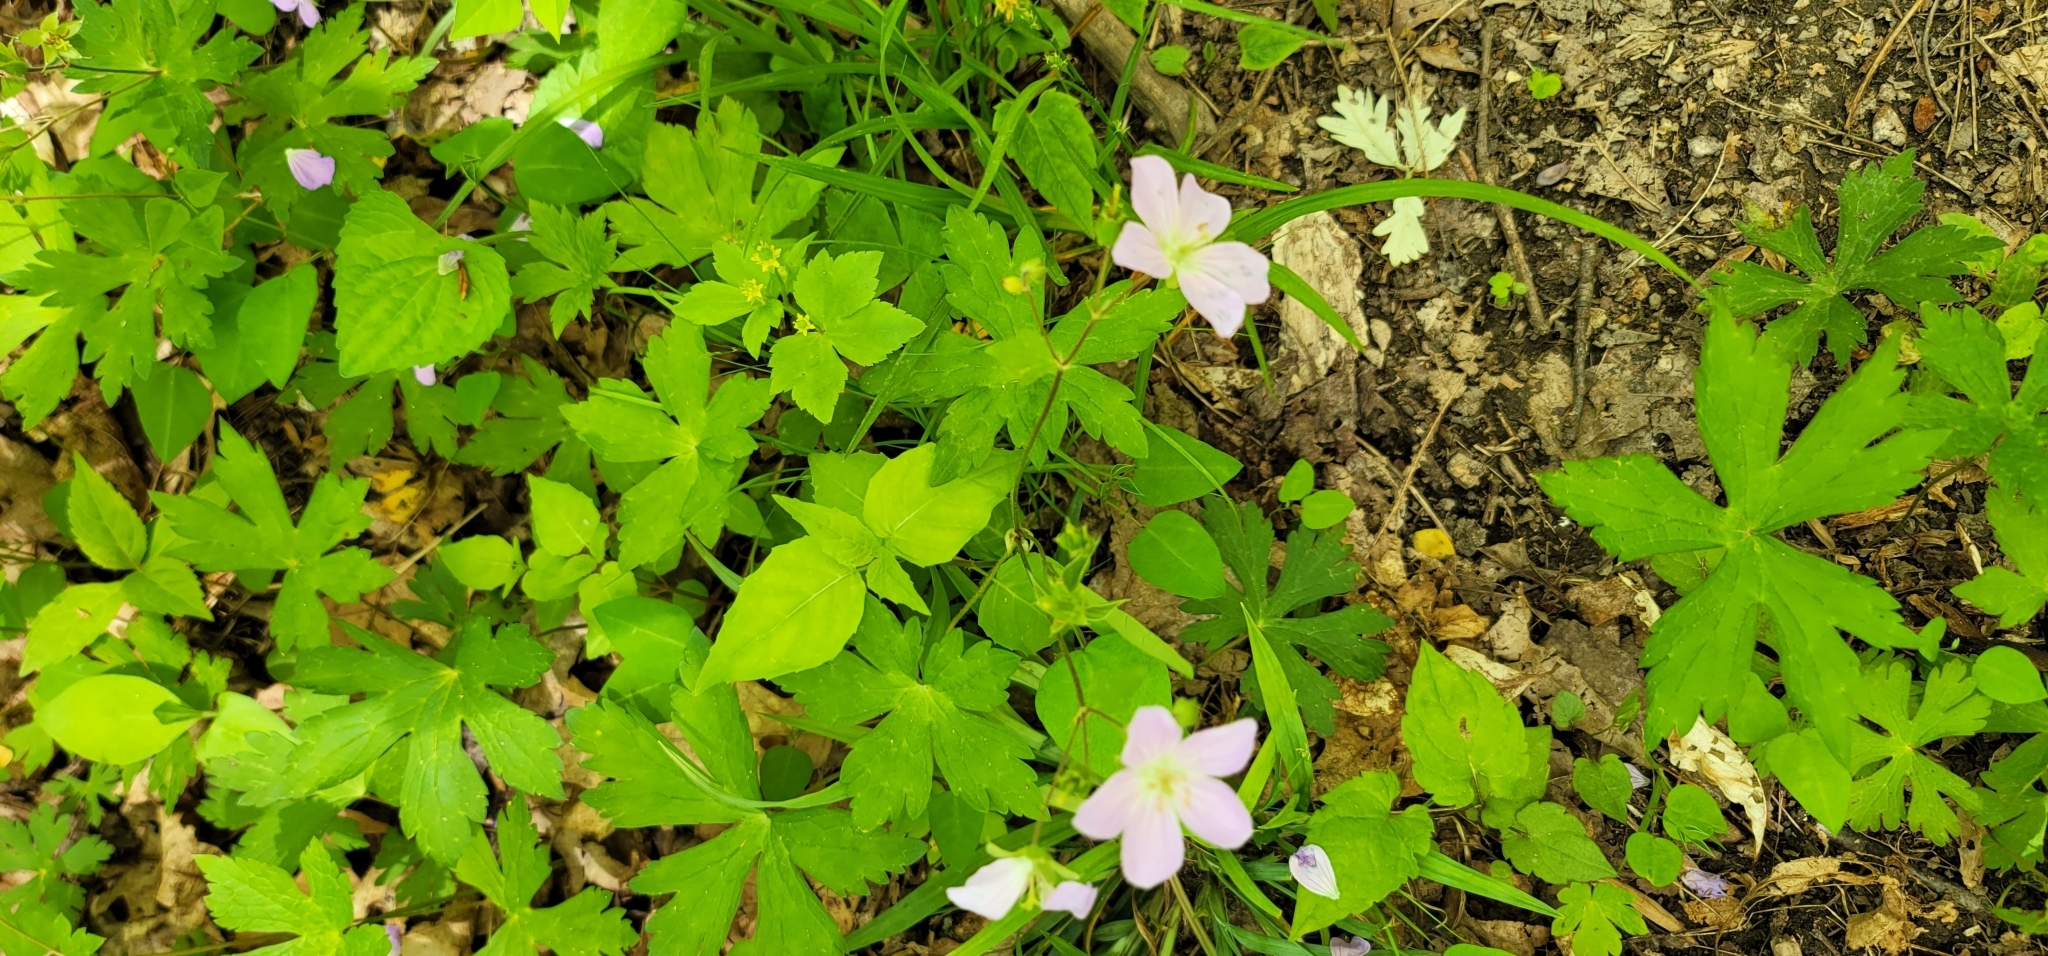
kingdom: Plantae
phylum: Tracheophyta
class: Magnoliopsida
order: Geraniales
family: Geraniaceae
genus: Geranium
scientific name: Geranium maculatum
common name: Spotted geranium
